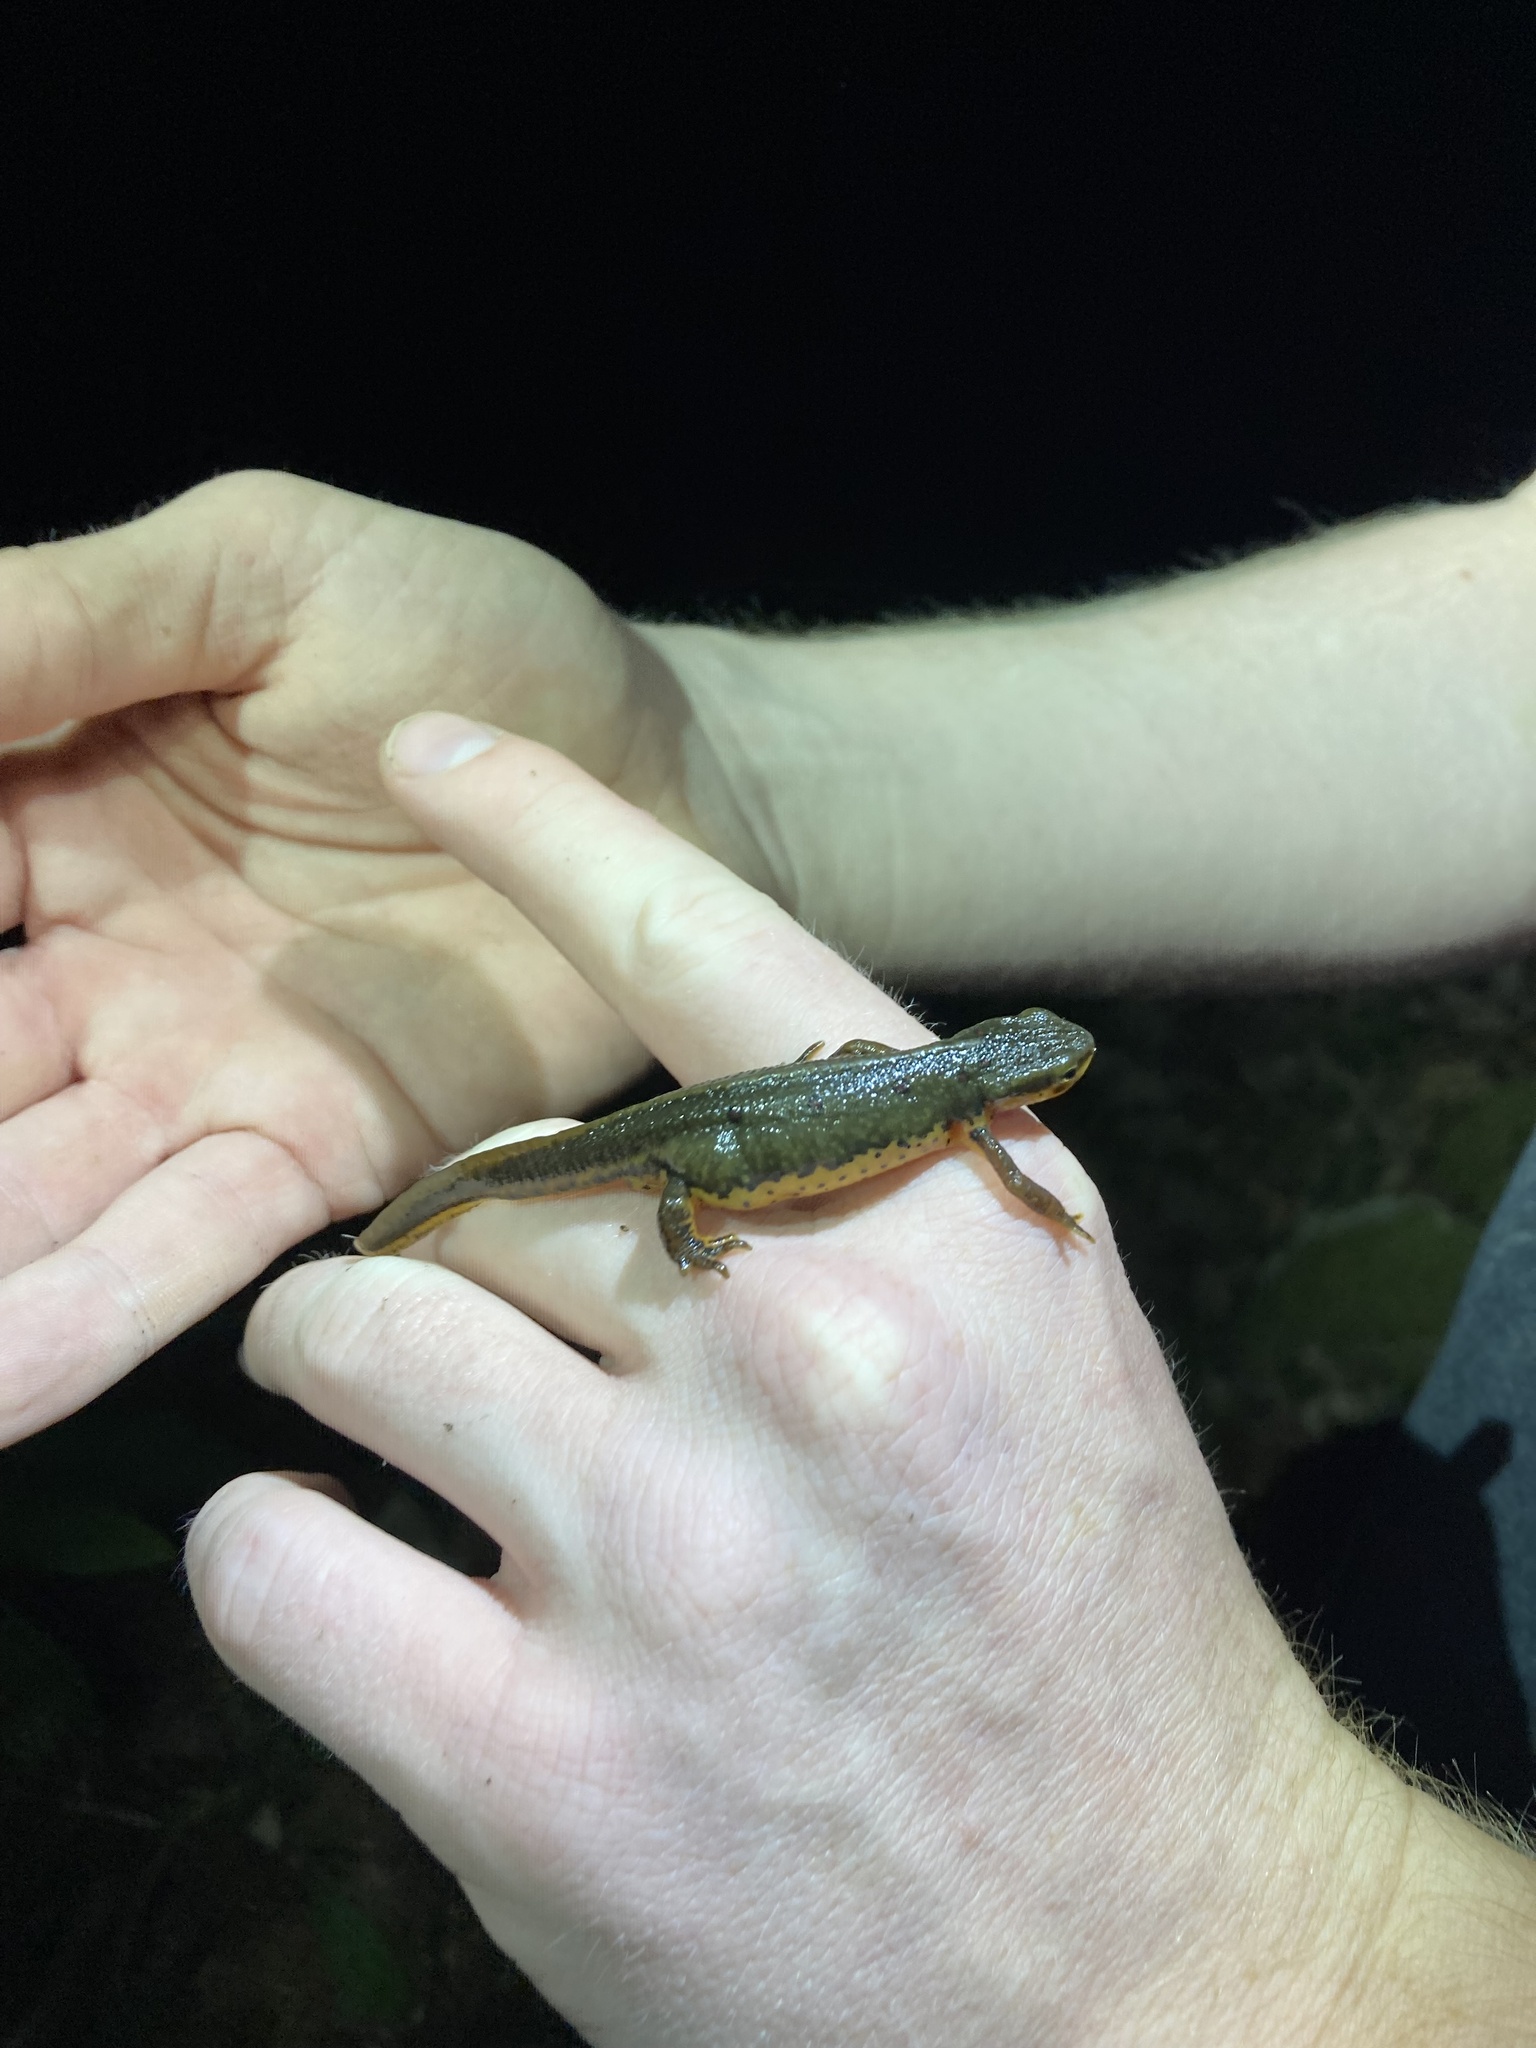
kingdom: Animalia
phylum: Chordata
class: Amphibia
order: Caudata
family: Salamandridae
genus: Notophthalmus
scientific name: Notophthalmus viridescens
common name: Eastern newt
